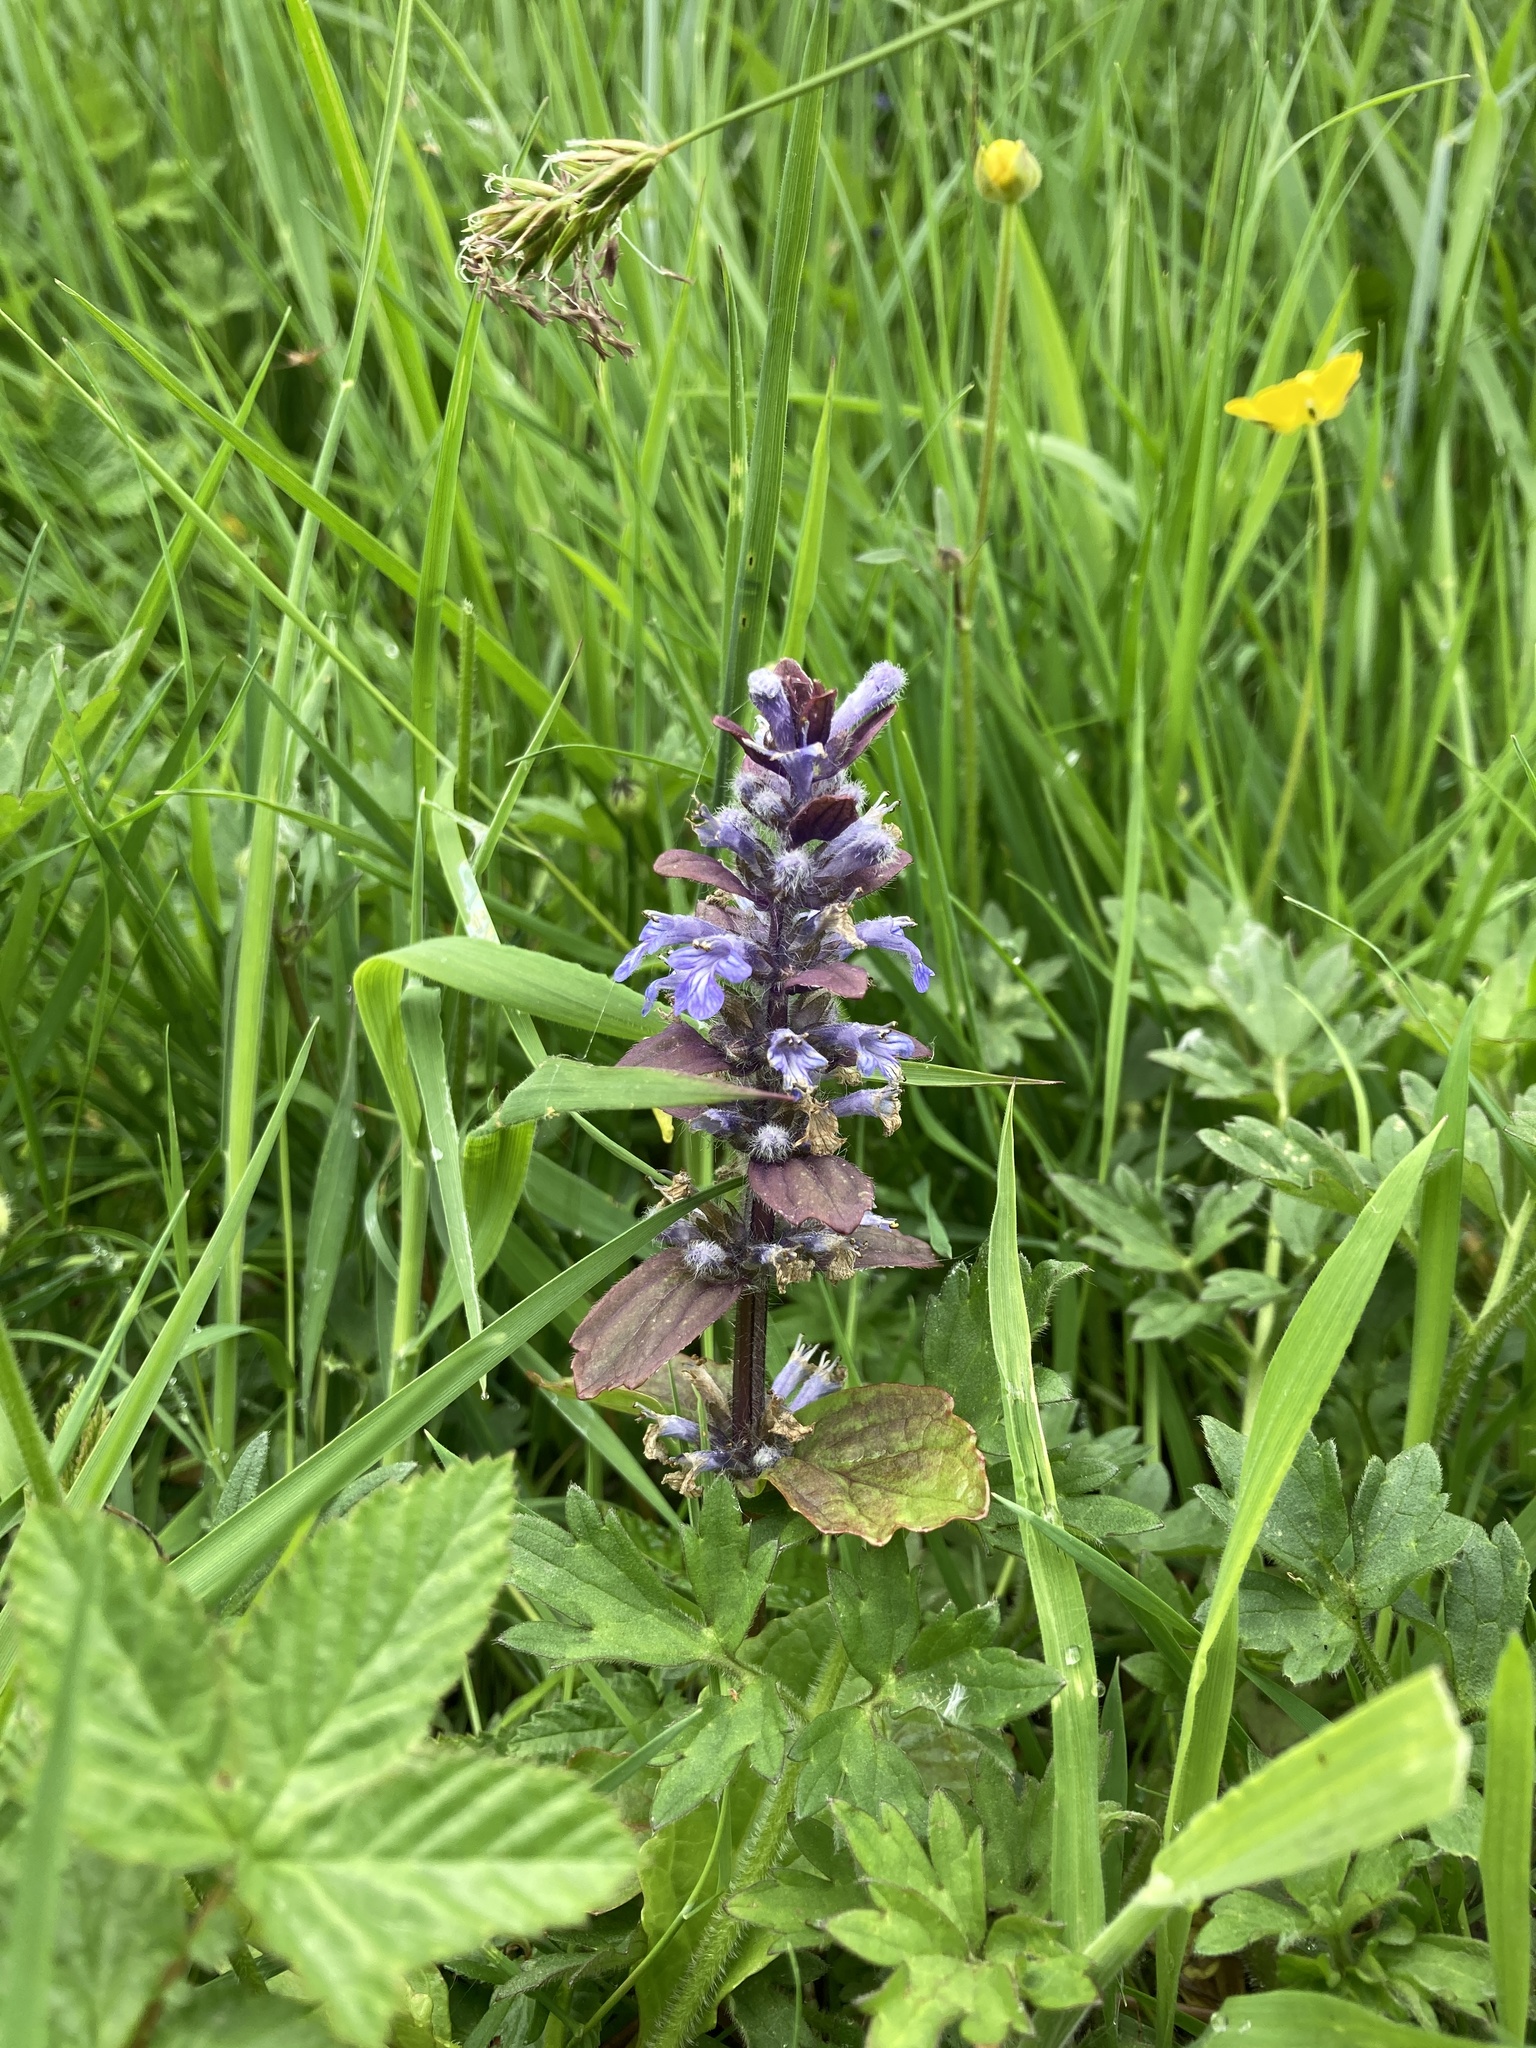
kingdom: Plantae
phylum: Tracheophyta
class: Magnoliopsida
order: Lamiales
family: Lamiaceae
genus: Ajuga
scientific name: Ajuga reptans
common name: Bugle
